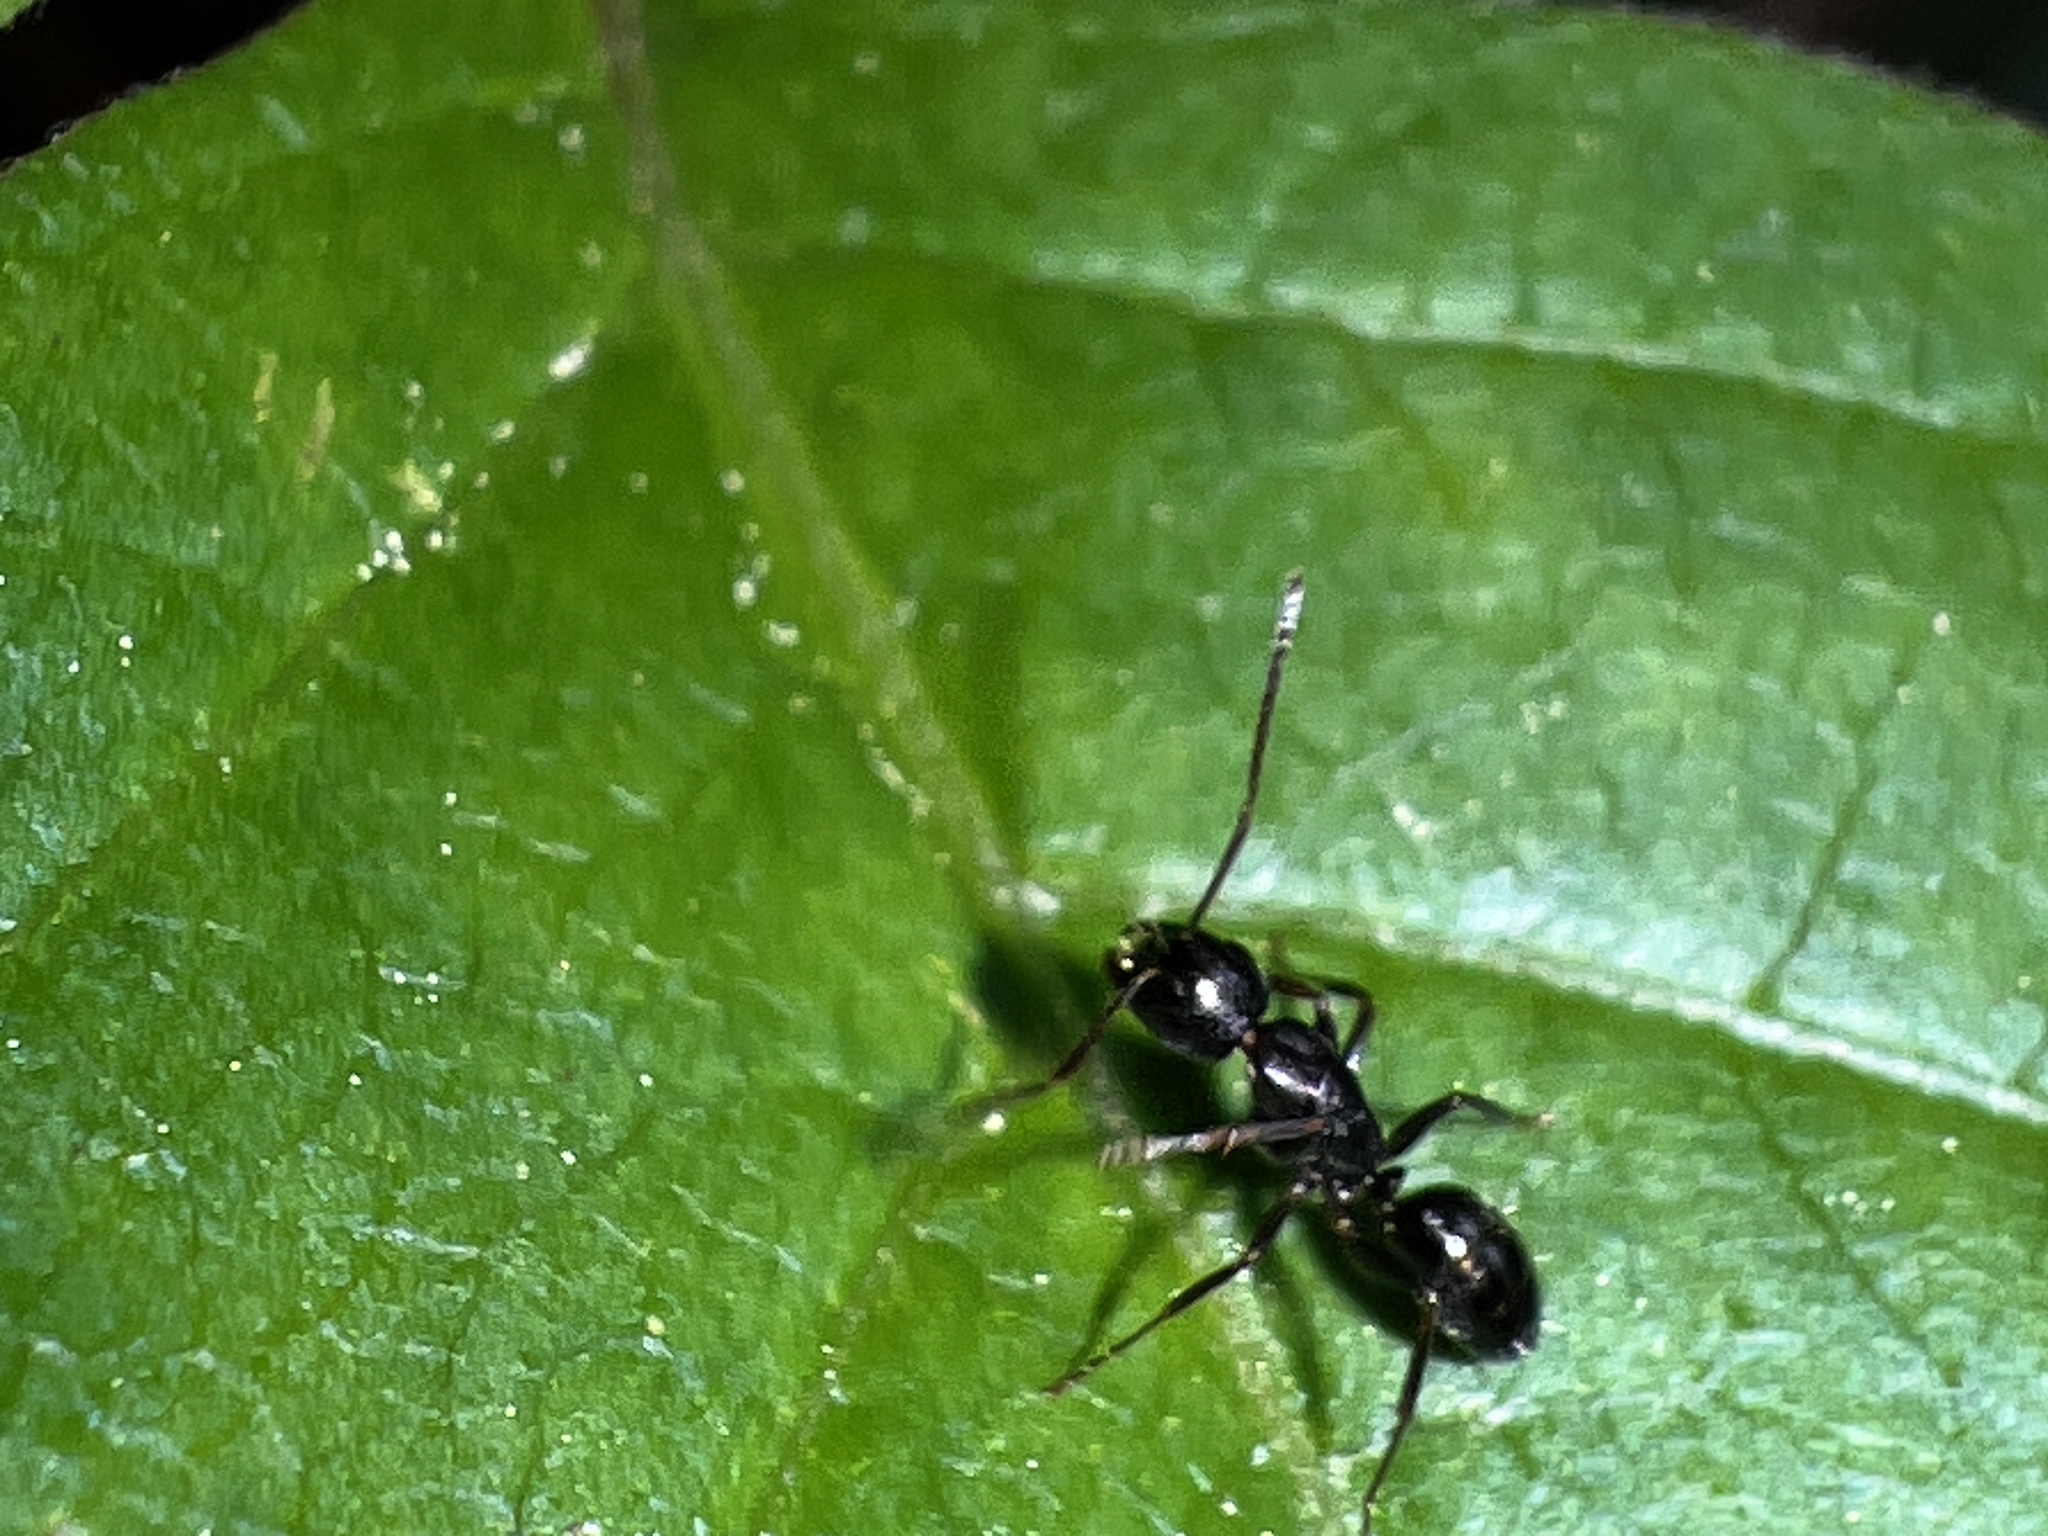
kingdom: Animalia
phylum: Arthropoda
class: Insecta
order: Hymenoptera
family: Formicidae
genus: Myrmentoma
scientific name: Myrmentoma
